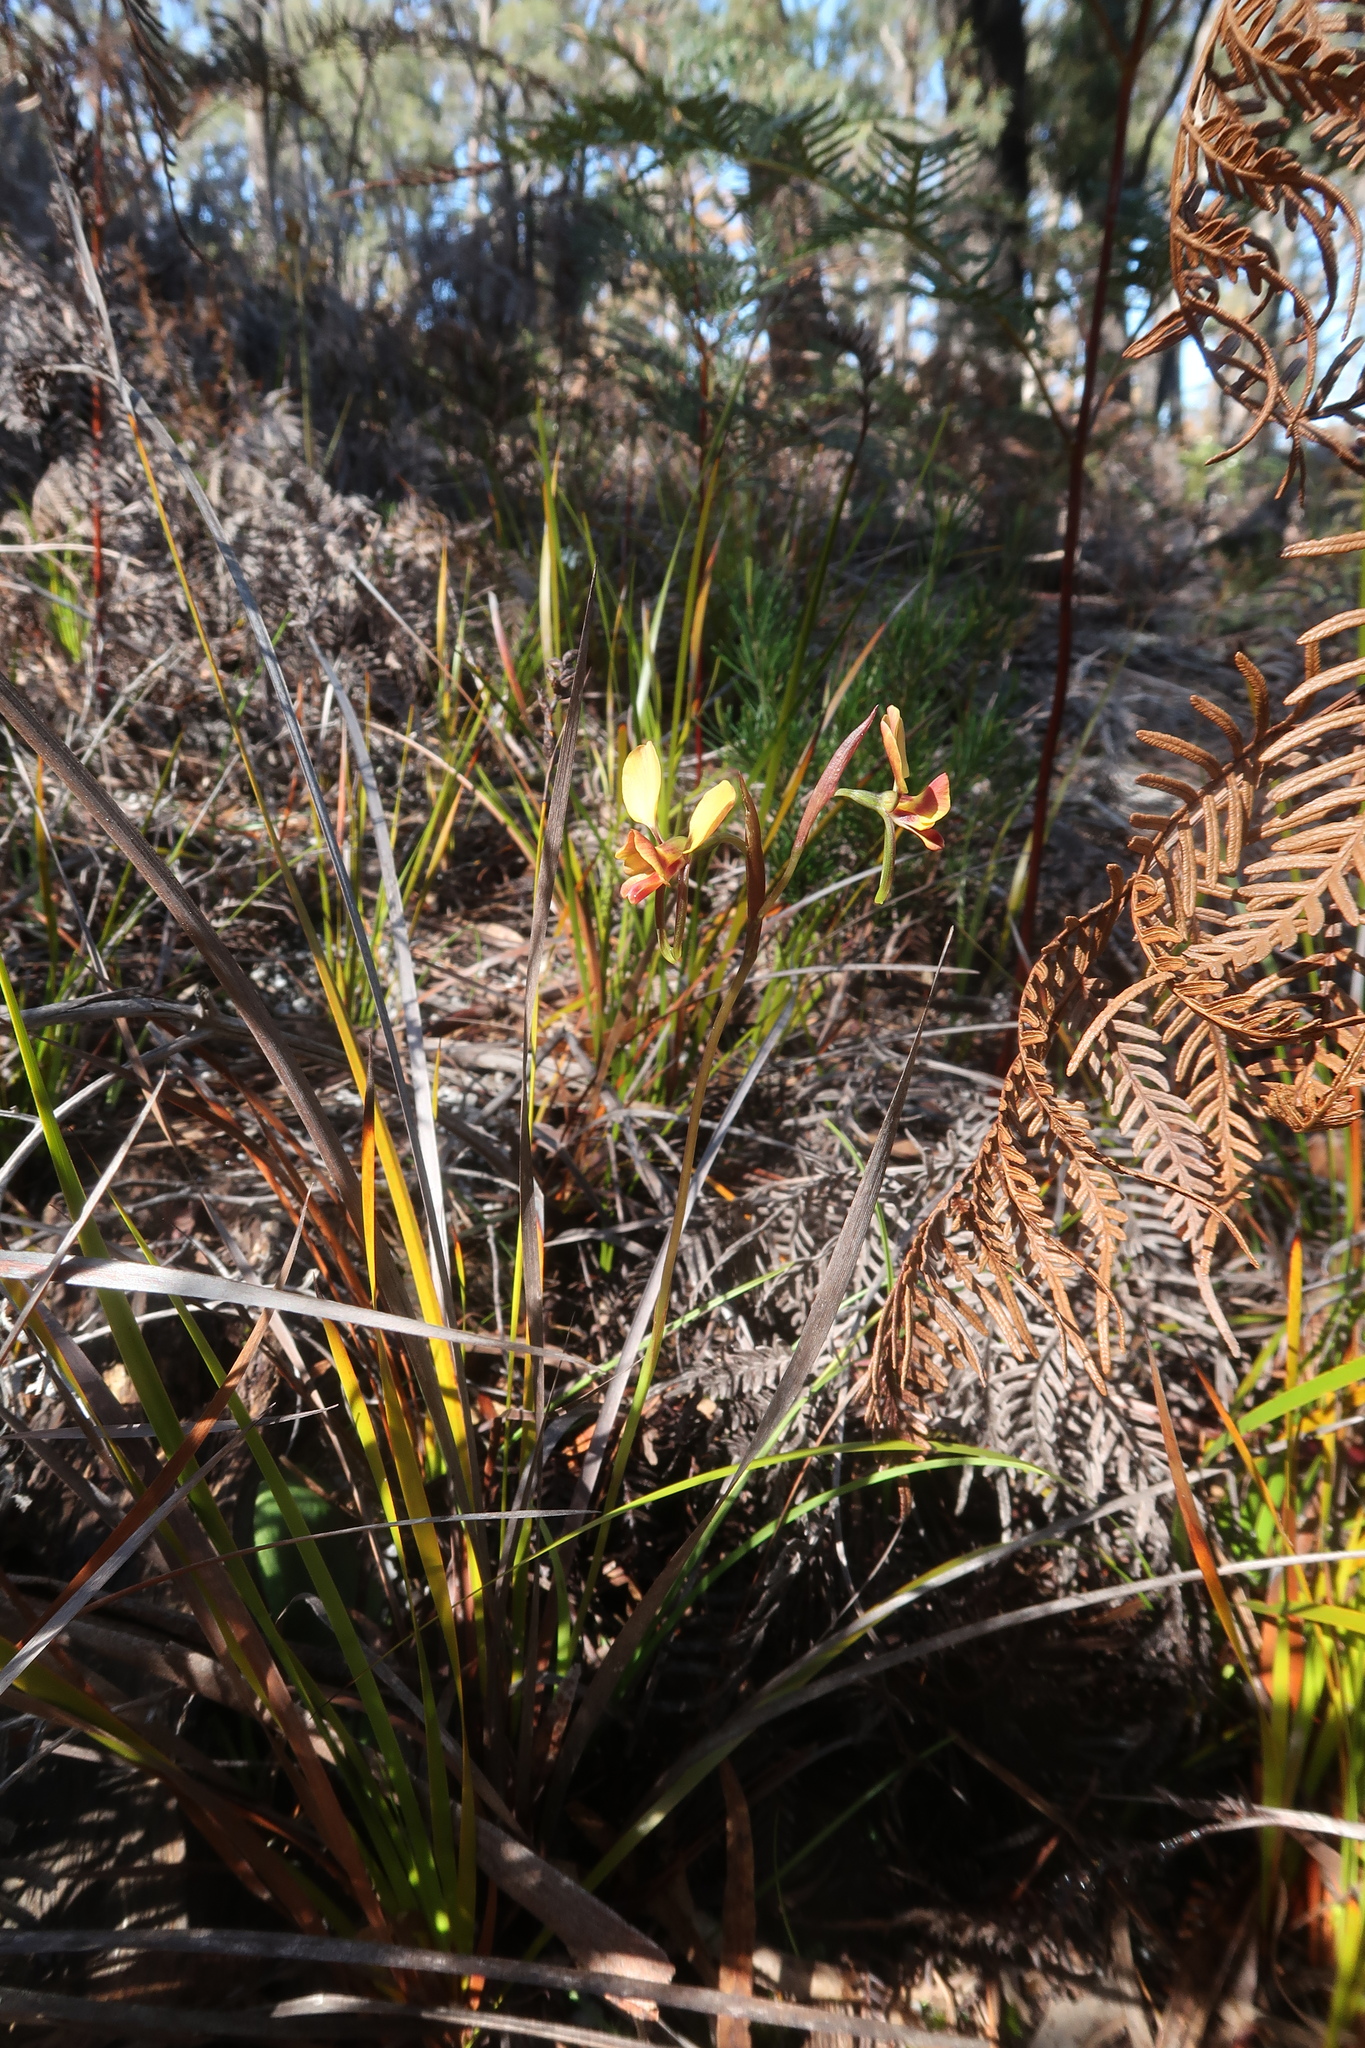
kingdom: Plantae
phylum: Tracheophyta
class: Liliopsida
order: Asparagales
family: Orchidaceae
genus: Diuris
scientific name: Diuris orientis
